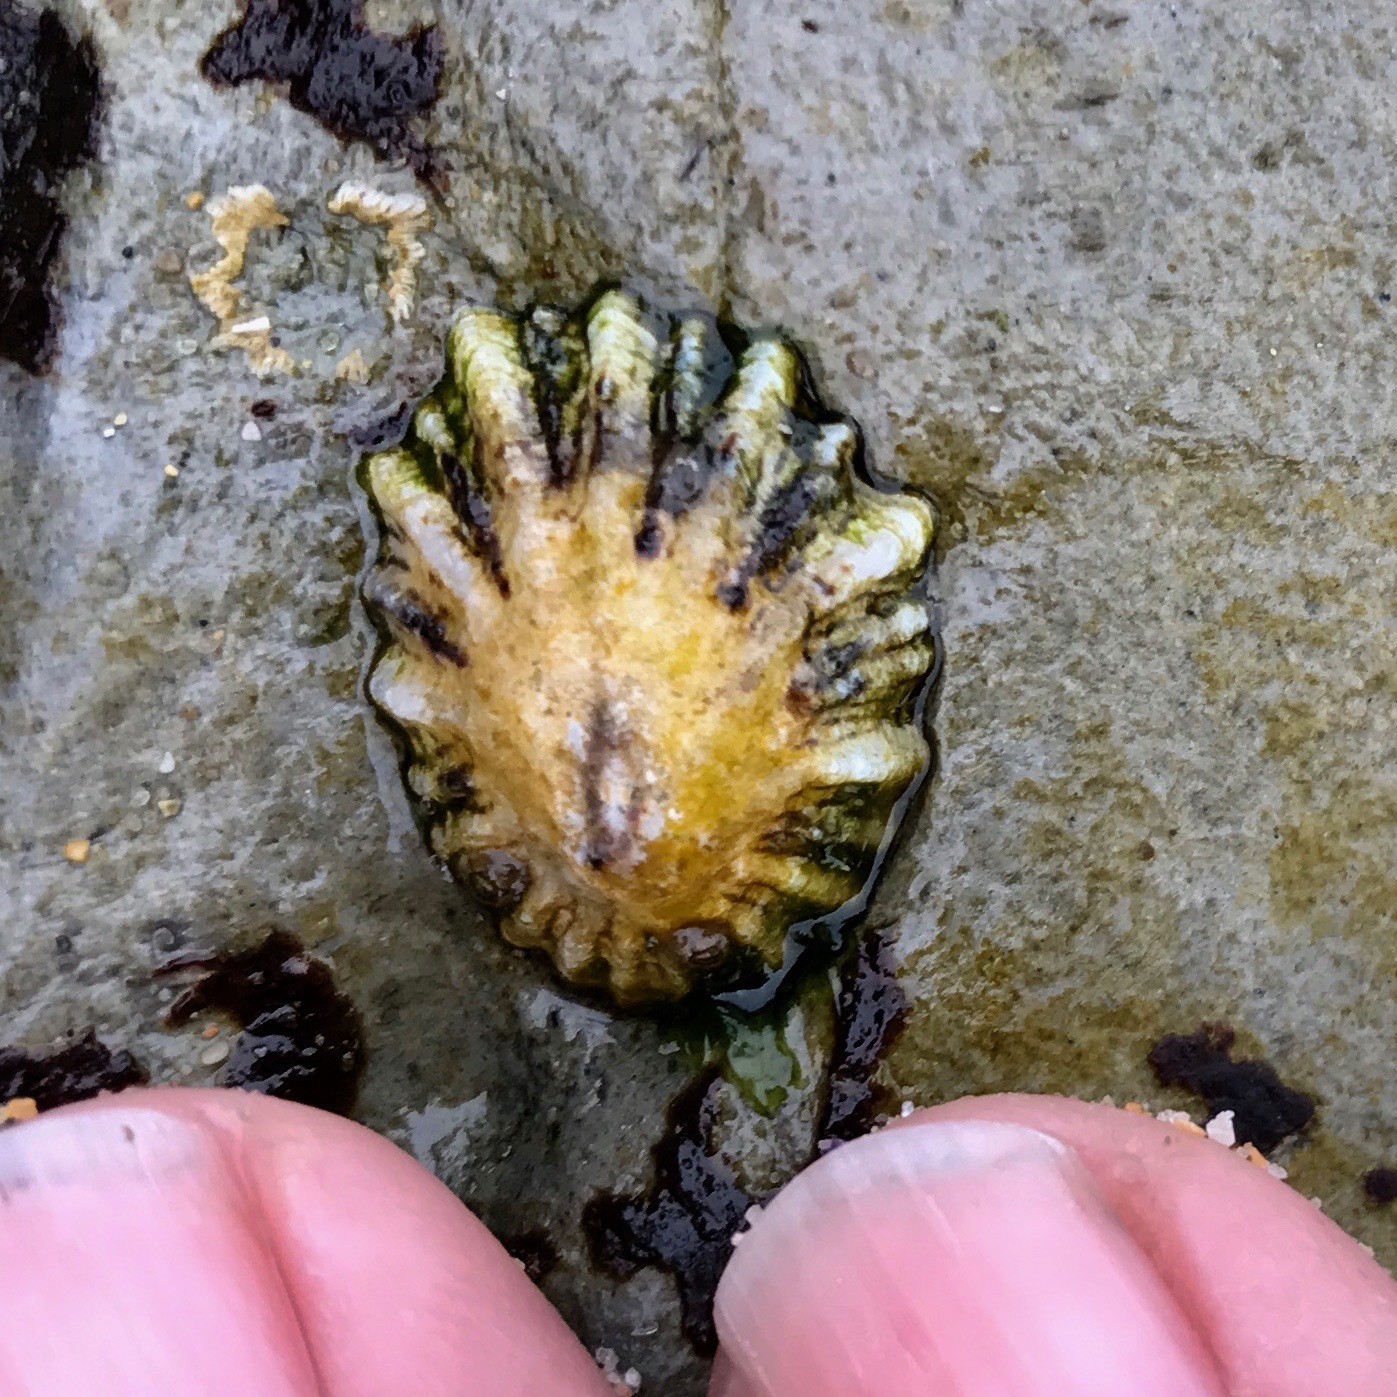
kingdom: Animalia
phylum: Mollusca
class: Gastropoda
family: Lottiidae
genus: Lottia
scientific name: Lottia scabra
